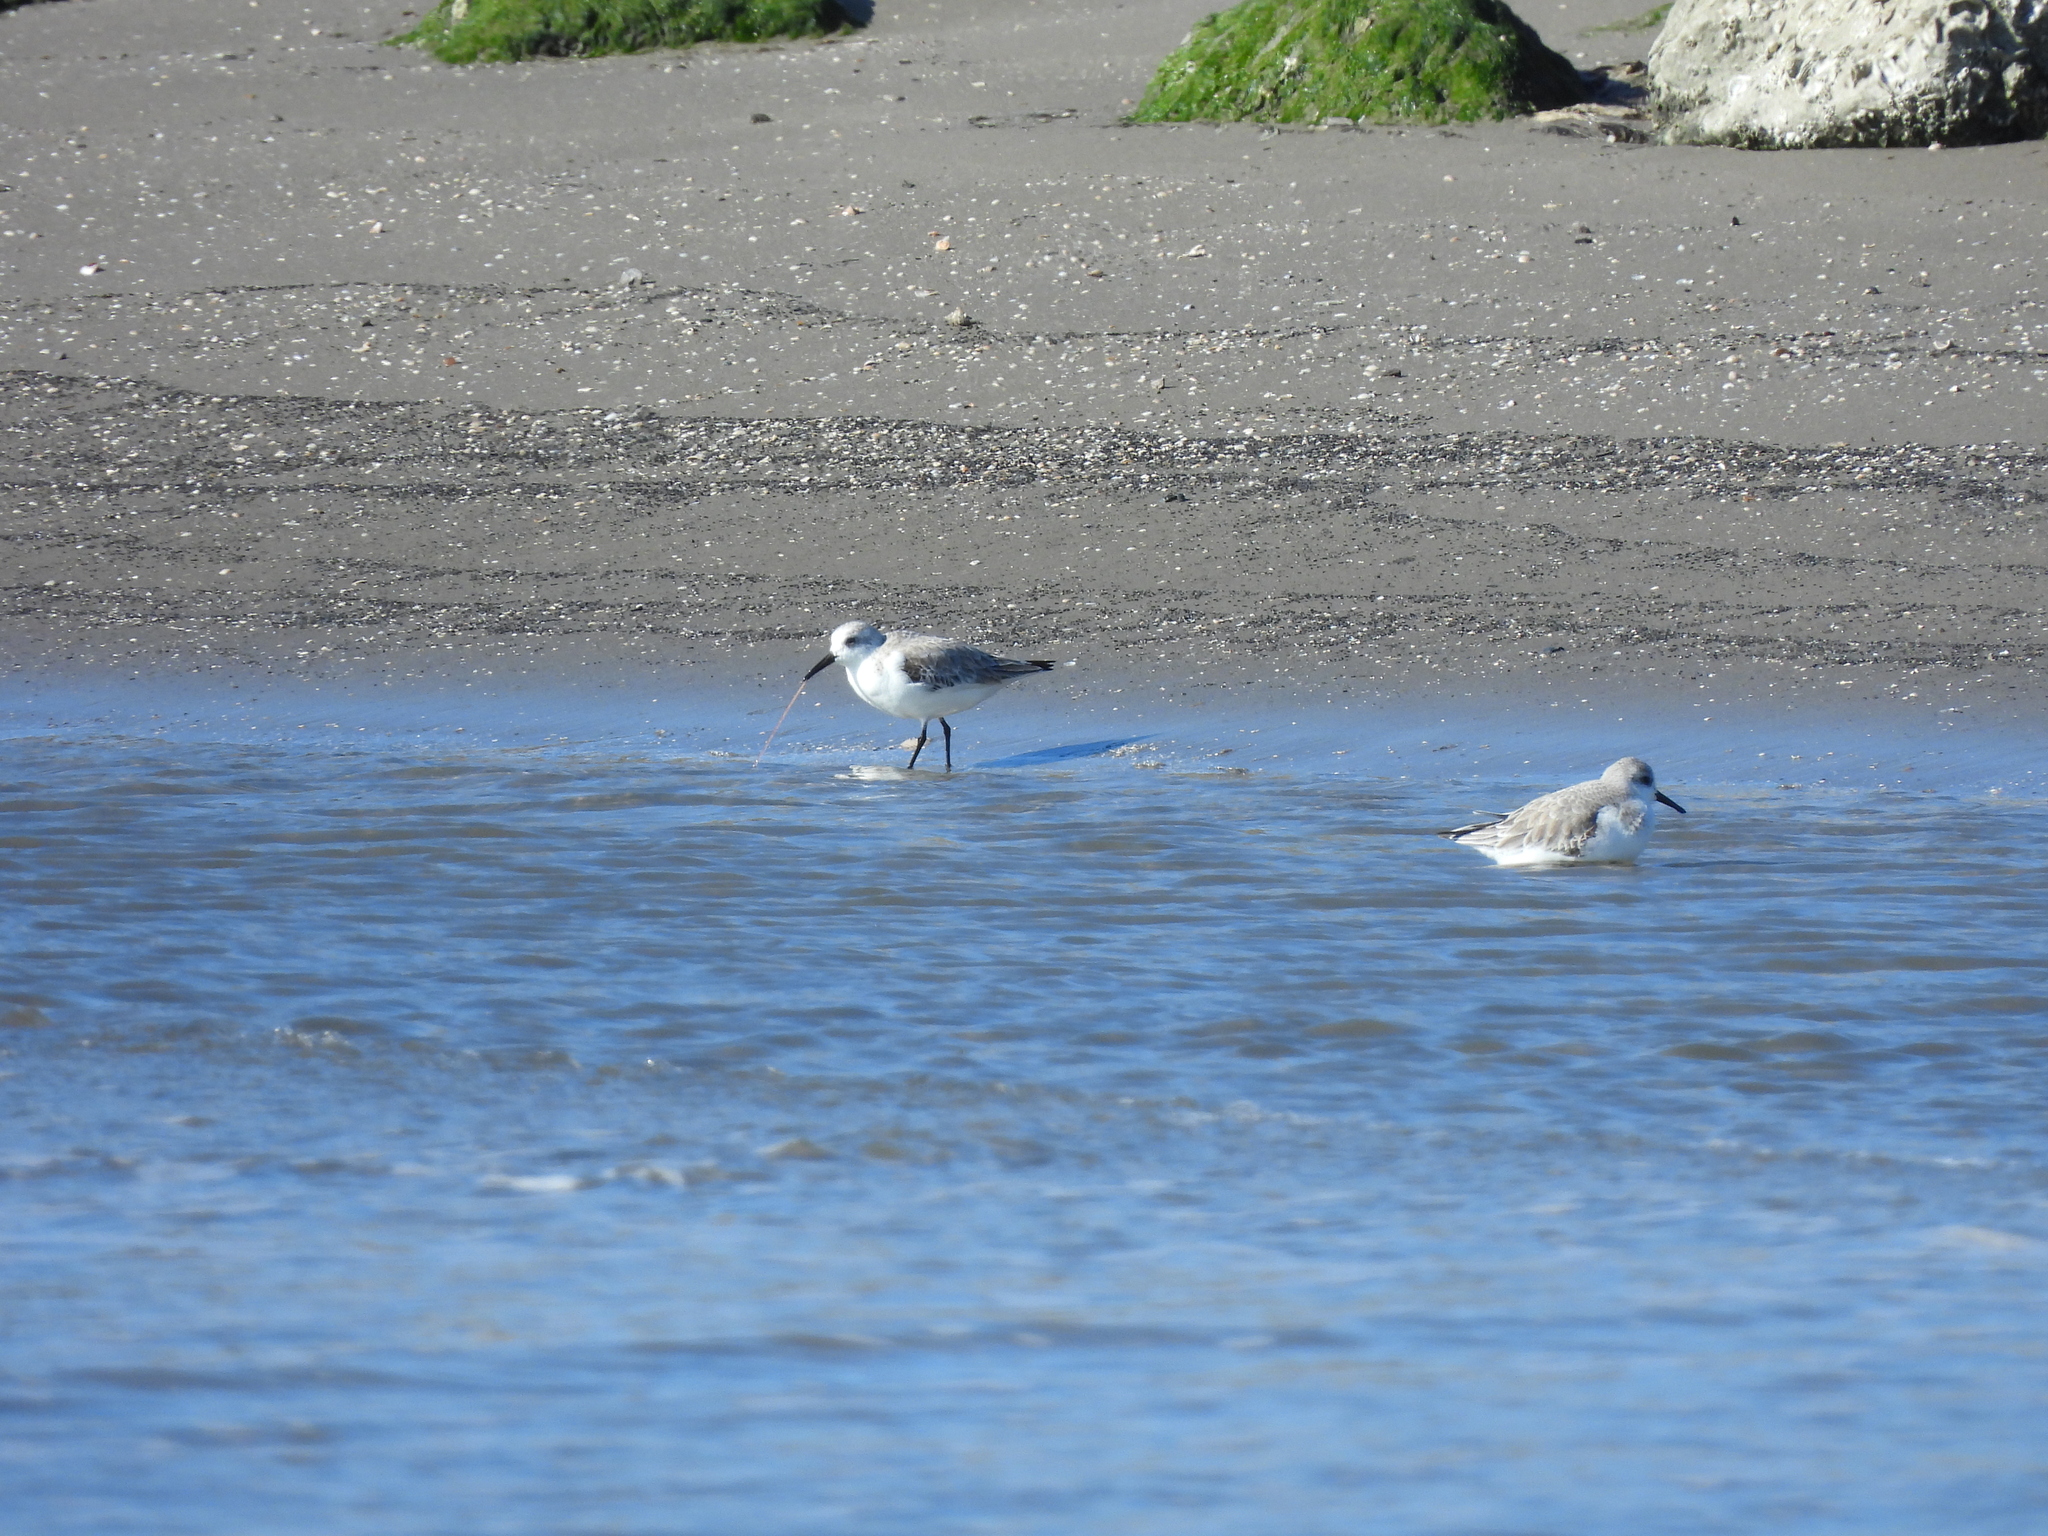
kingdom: Animalia
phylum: Chordata
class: Aves
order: Charadriiformes
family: Scolopacidae
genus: Calidris
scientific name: Calidris alba
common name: Sanderling
